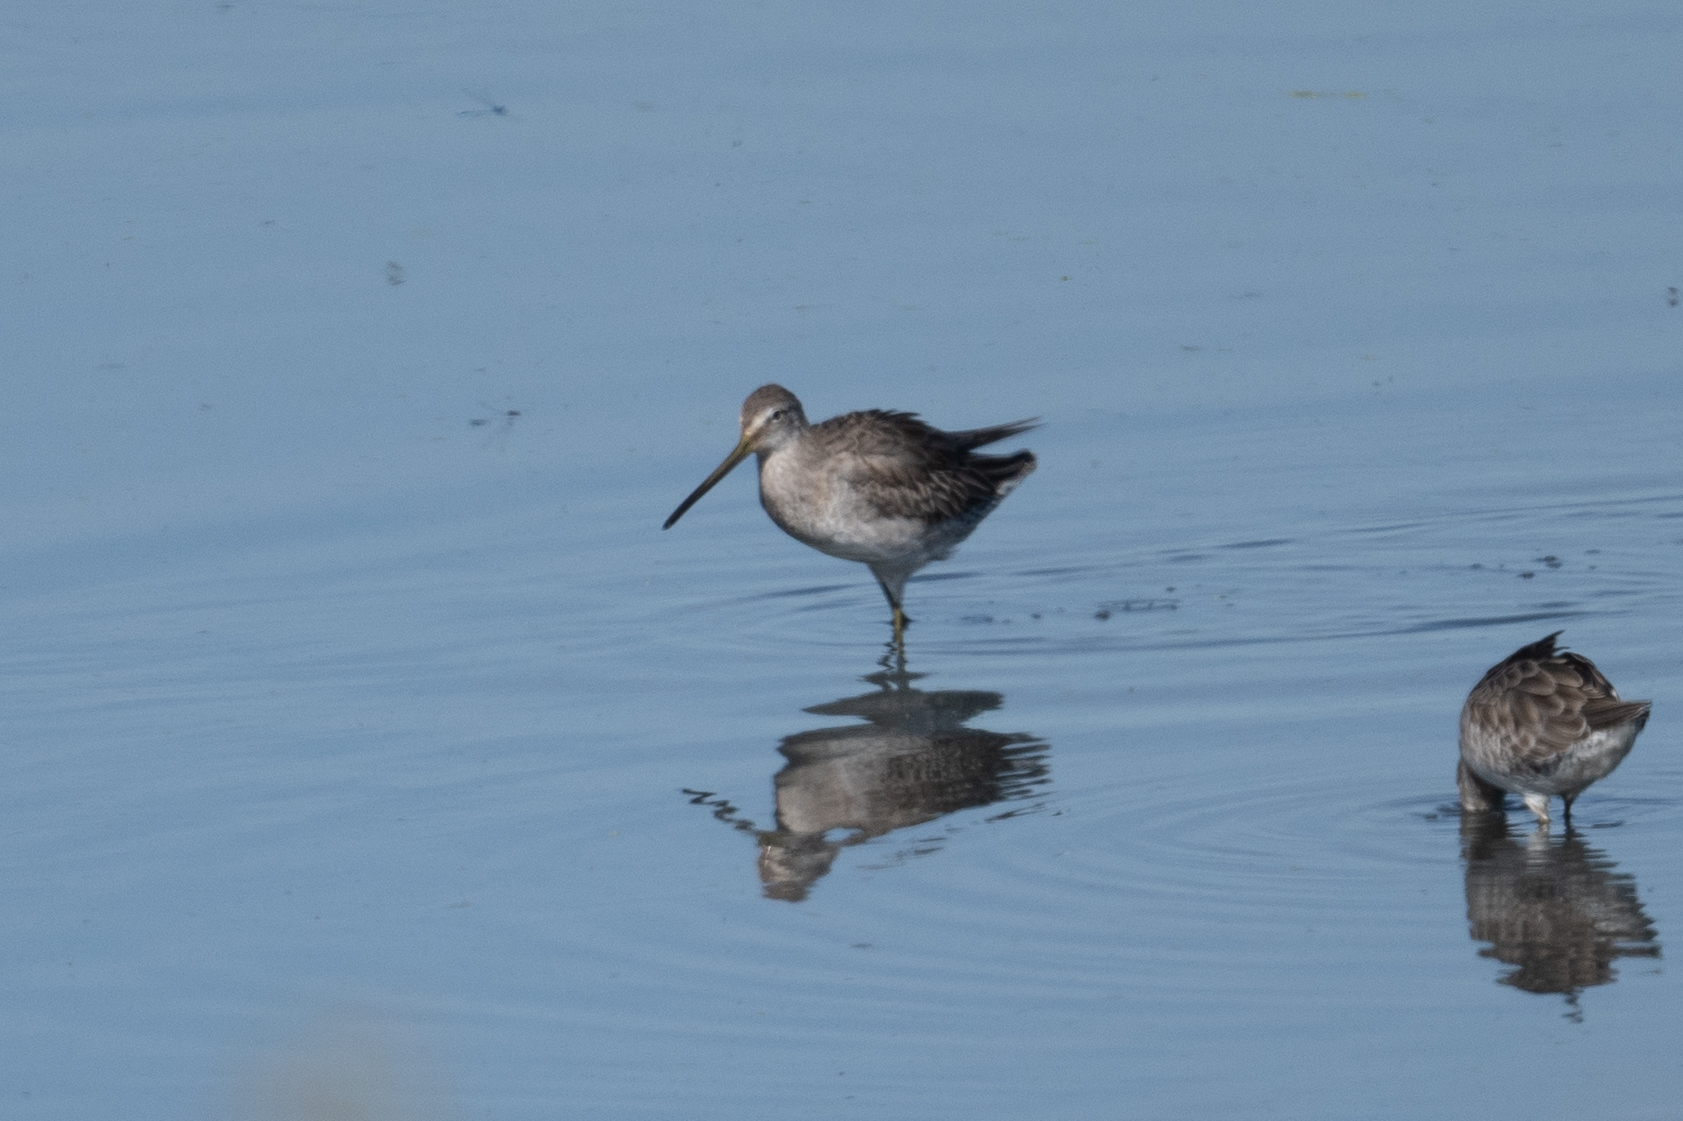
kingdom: Animalia
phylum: Chordata
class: Aves
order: Charadriiformes
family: Scolopacidae
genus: Limnodromus
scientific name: Limnodromus scolopaceus
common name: Long-billed dowitcher
